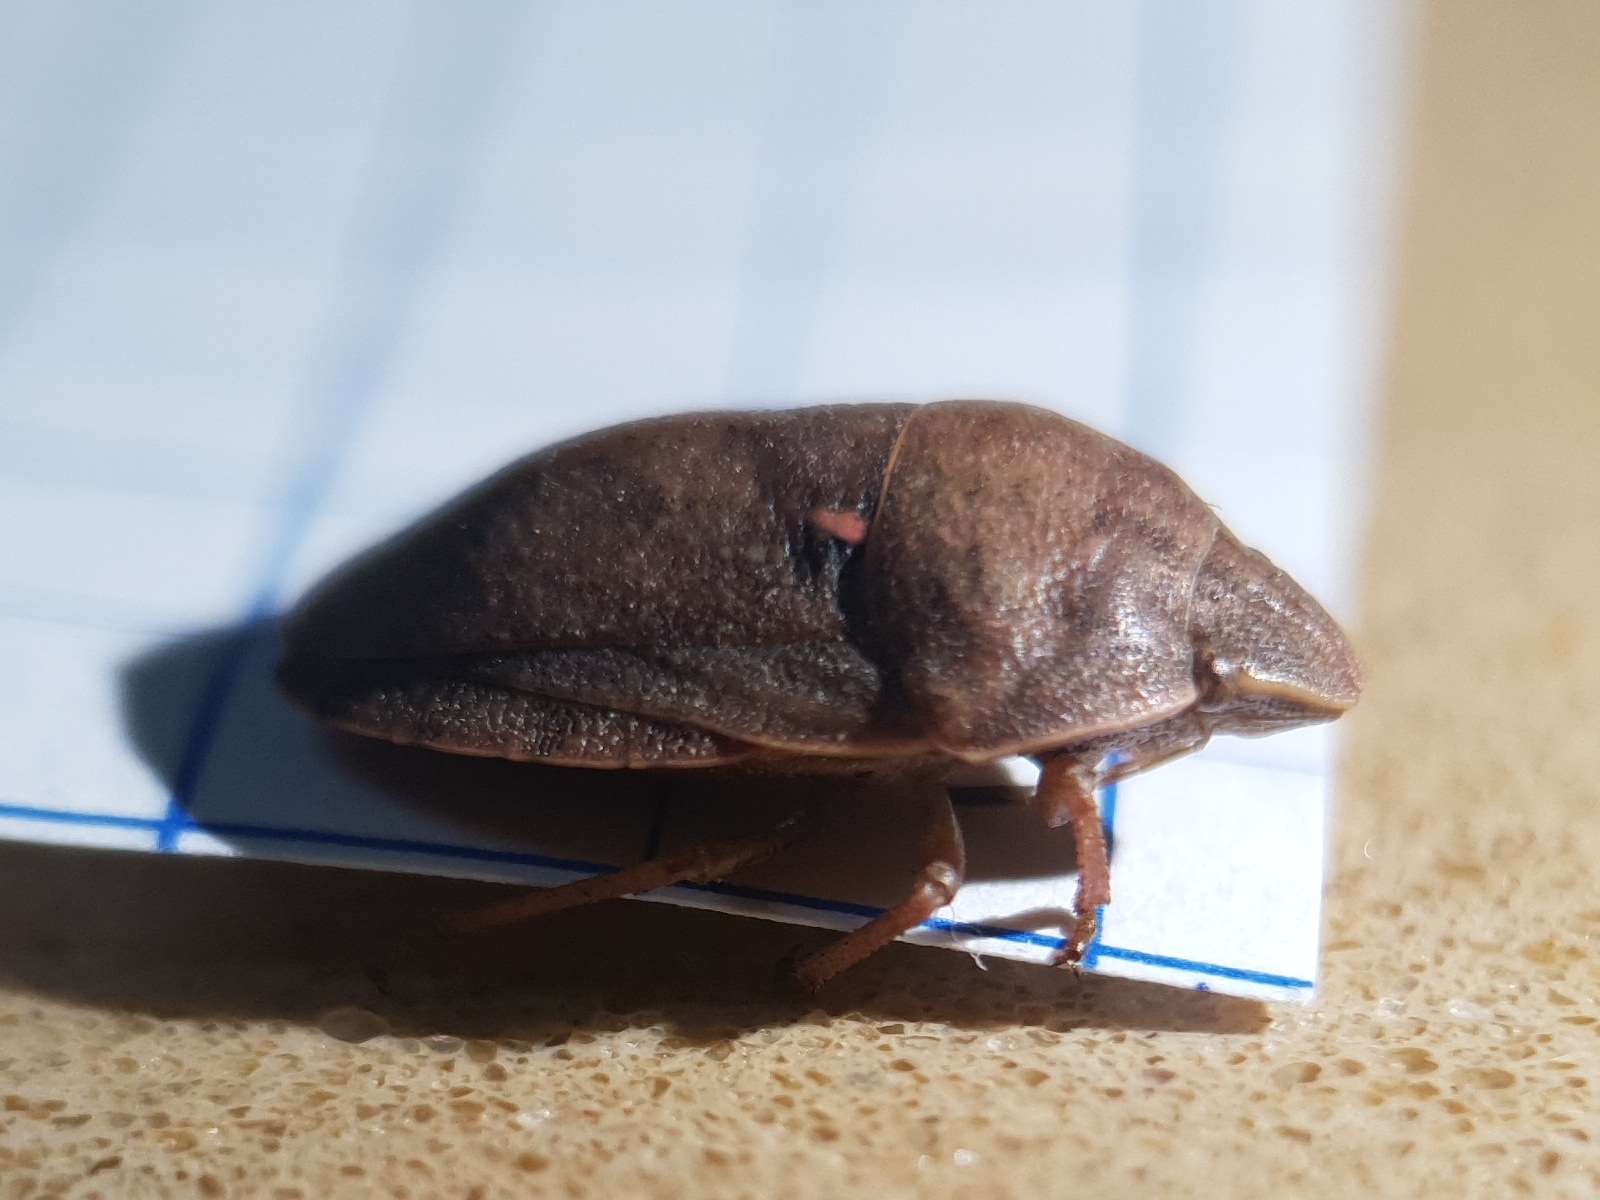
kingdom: Animalia
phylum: Arthropoda
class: Insecta
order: Hemiptera
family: Scutelleridae
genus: Eurygaster
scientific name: Eurygaster integriceps
